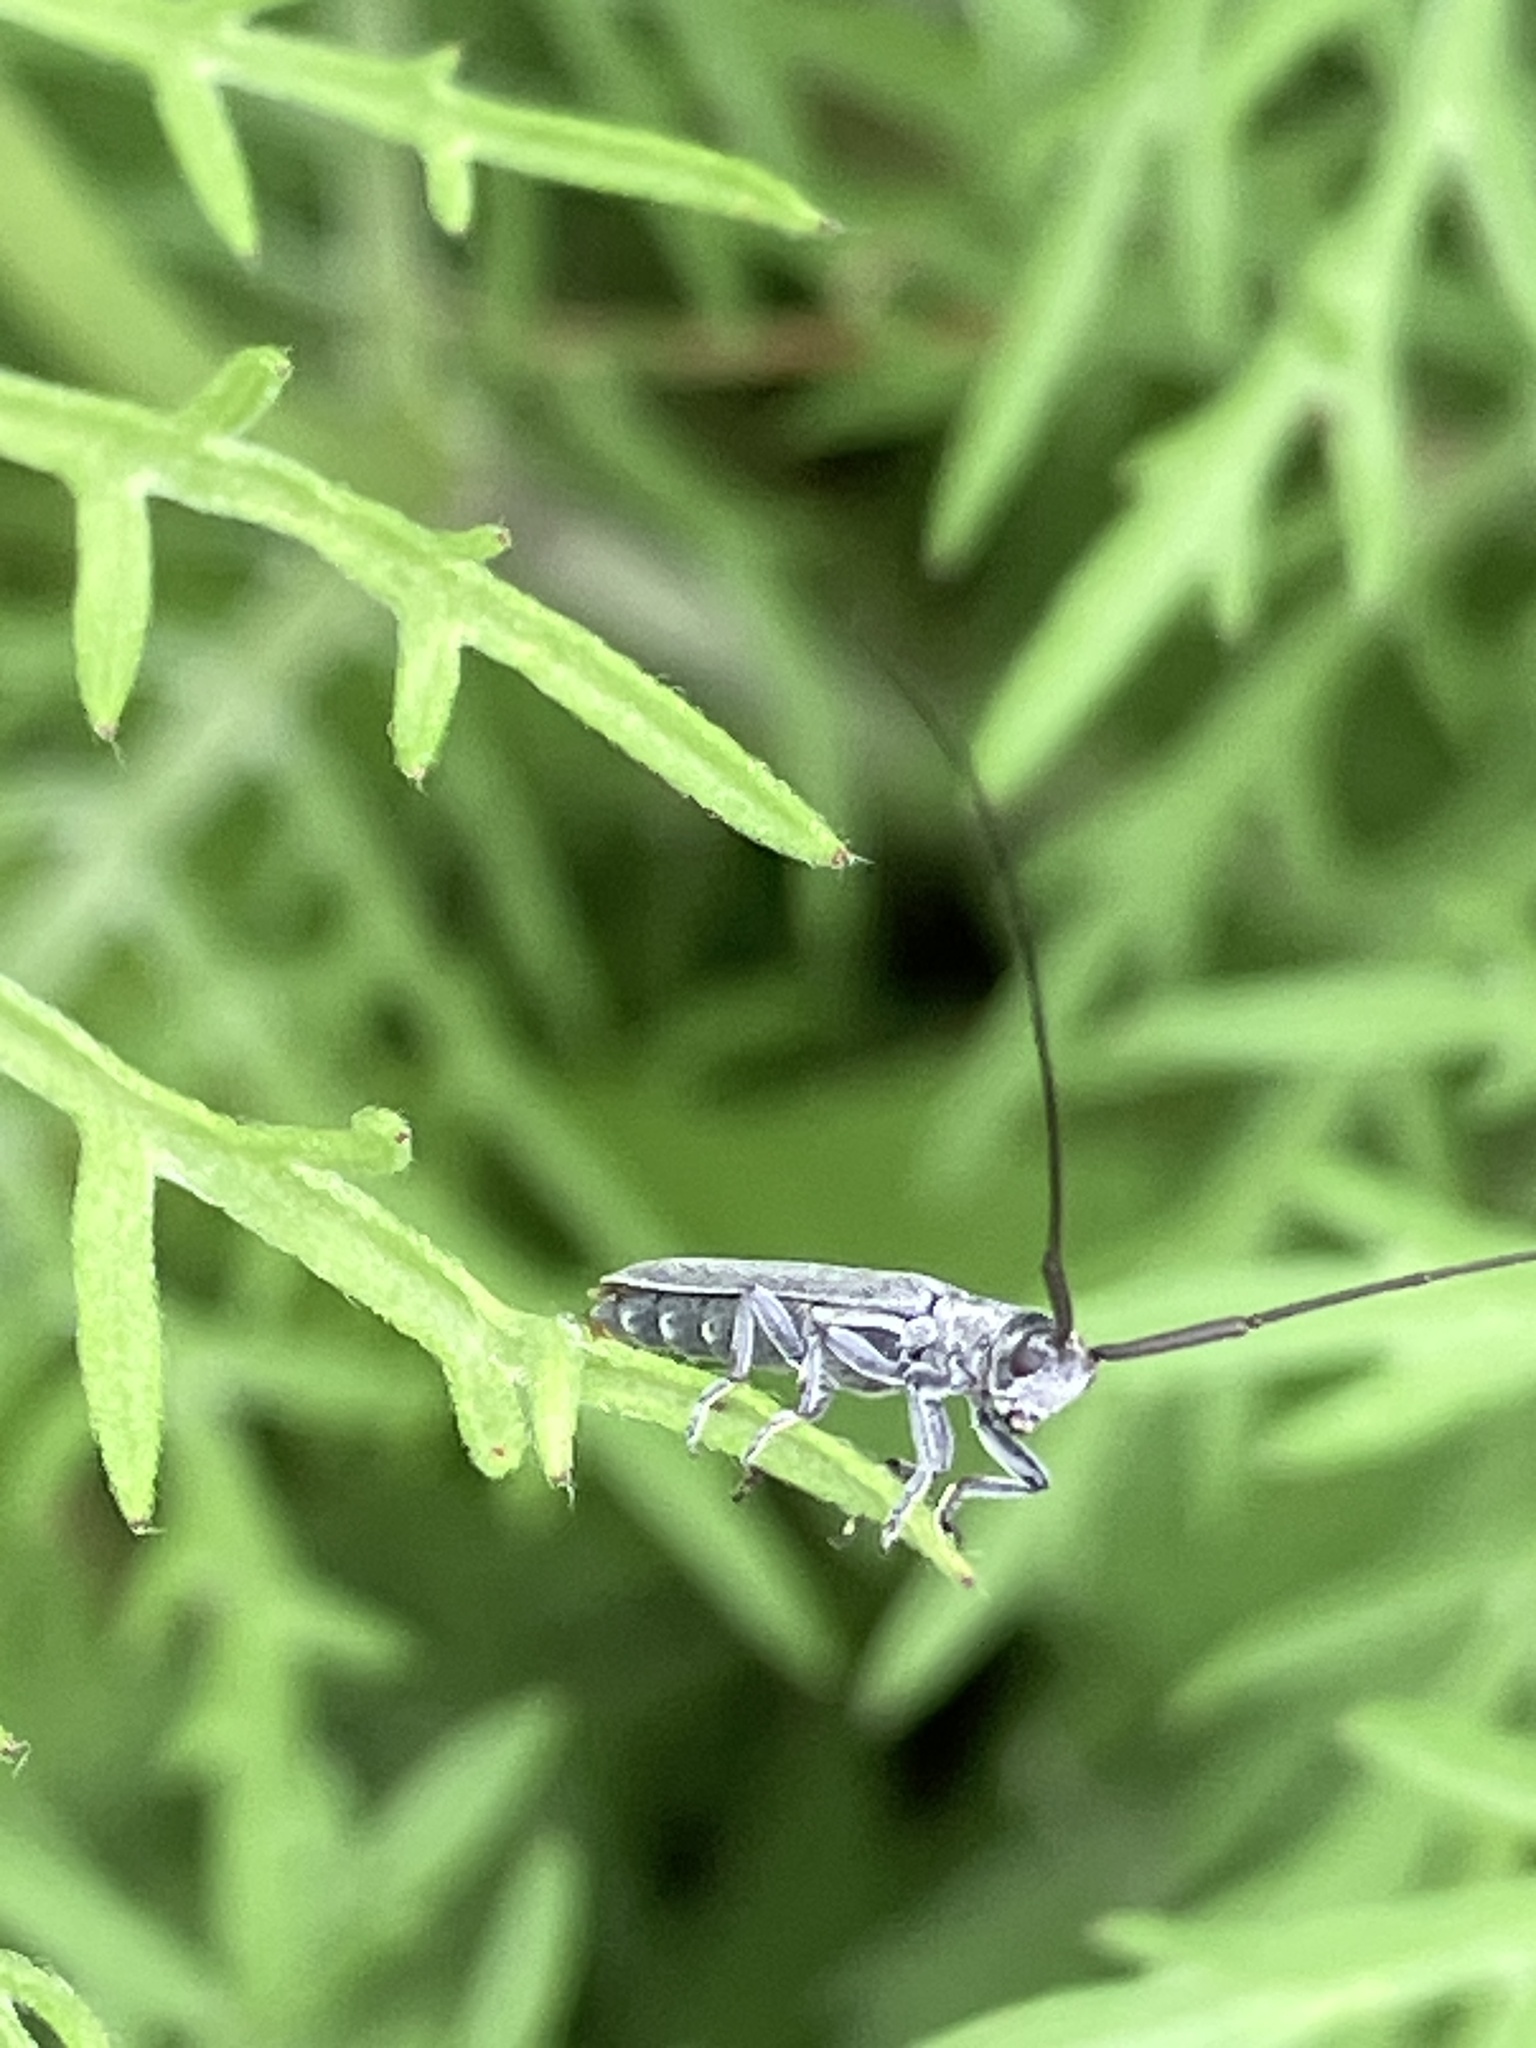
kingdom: Animalia
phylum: Arthropoda
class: Insecta
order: Coleoptera
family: Cerambycidae
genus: Calamobius
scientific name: Calamobius filum
